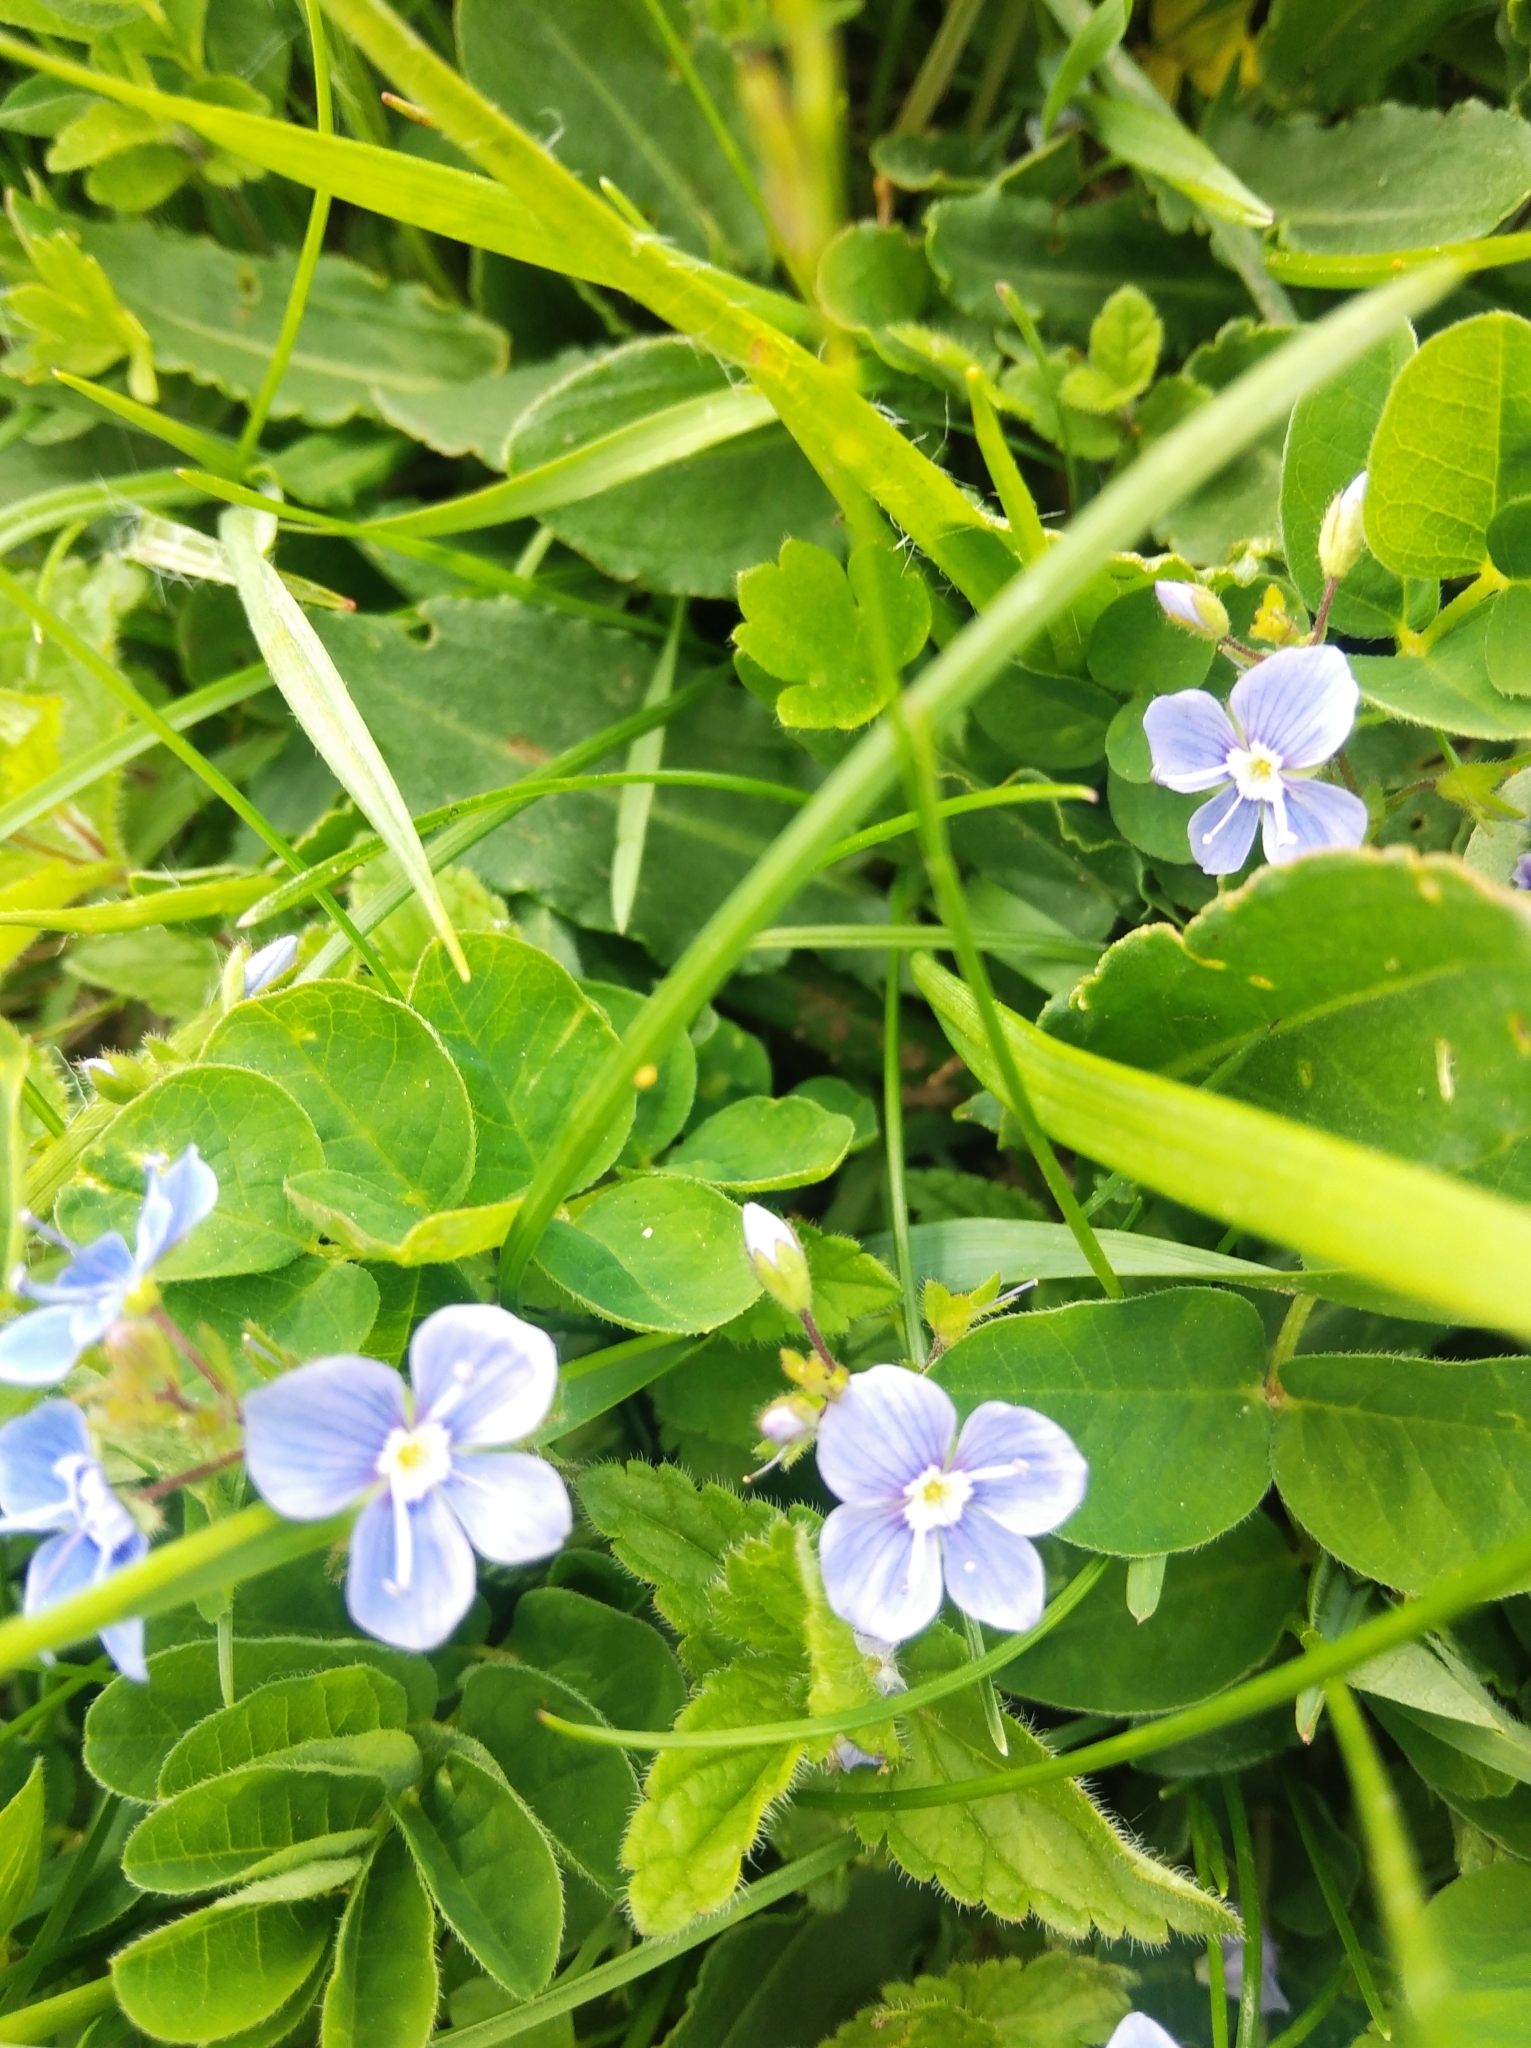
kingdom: Plantae
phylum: Tracheophyta
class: Magnoliopsida
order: Lamiales
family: Plantaginaceae
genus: Veronica
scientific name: Veronica chamaedrys
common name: Germander speedwell
